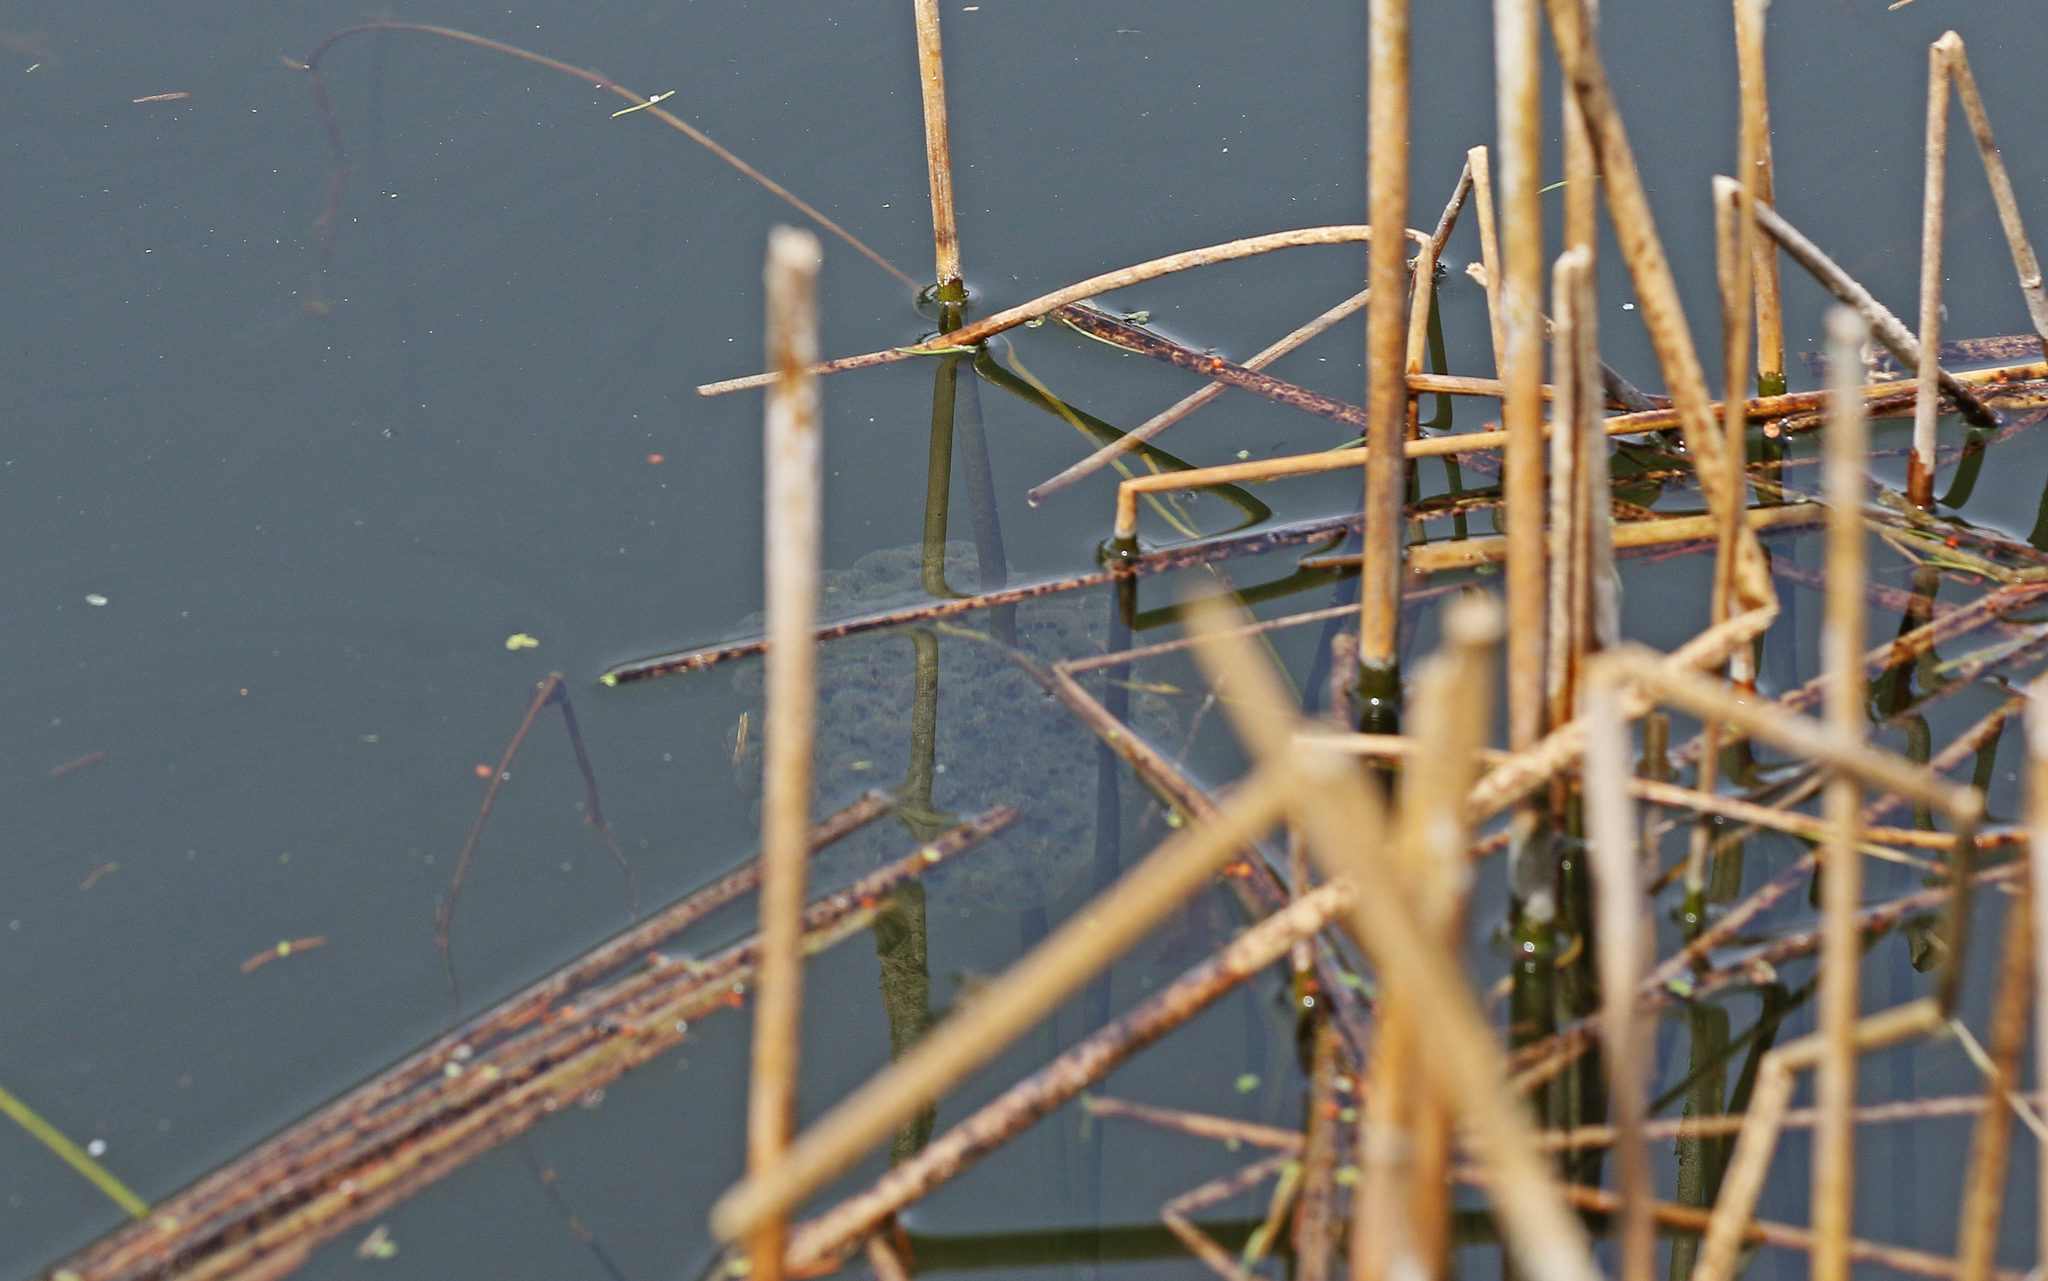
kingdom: Animalia
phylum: Chordata
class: Amphibia
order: Anura
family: Ranidae
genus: Rana
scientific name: Rana dalmatina
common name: Agile frog
